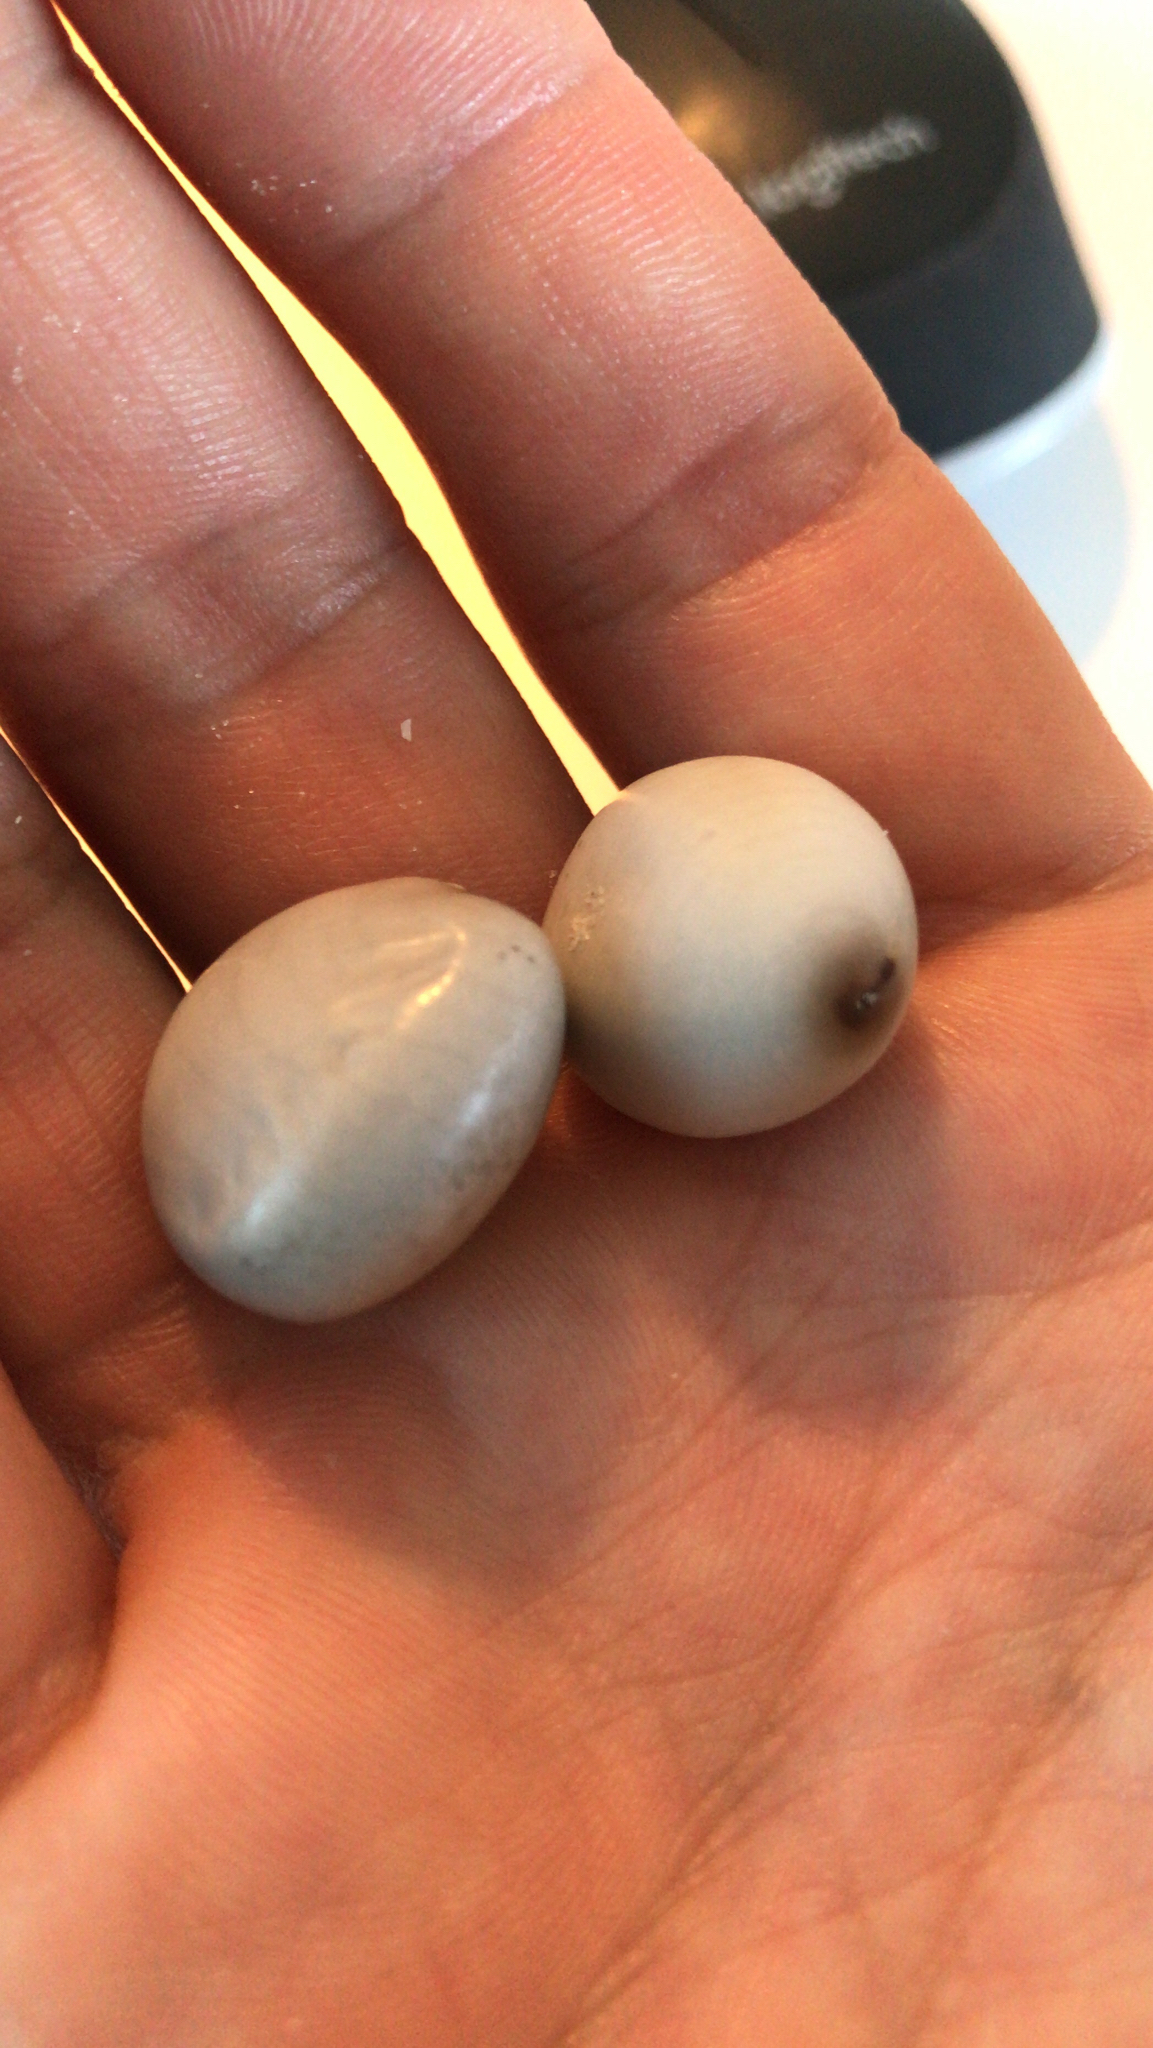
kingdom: Plantae
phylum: Tracheophyta
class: Magnoliopsida
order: Fabales
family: Fabaceae
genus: Guilandina
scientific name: Guilandina bonduc
